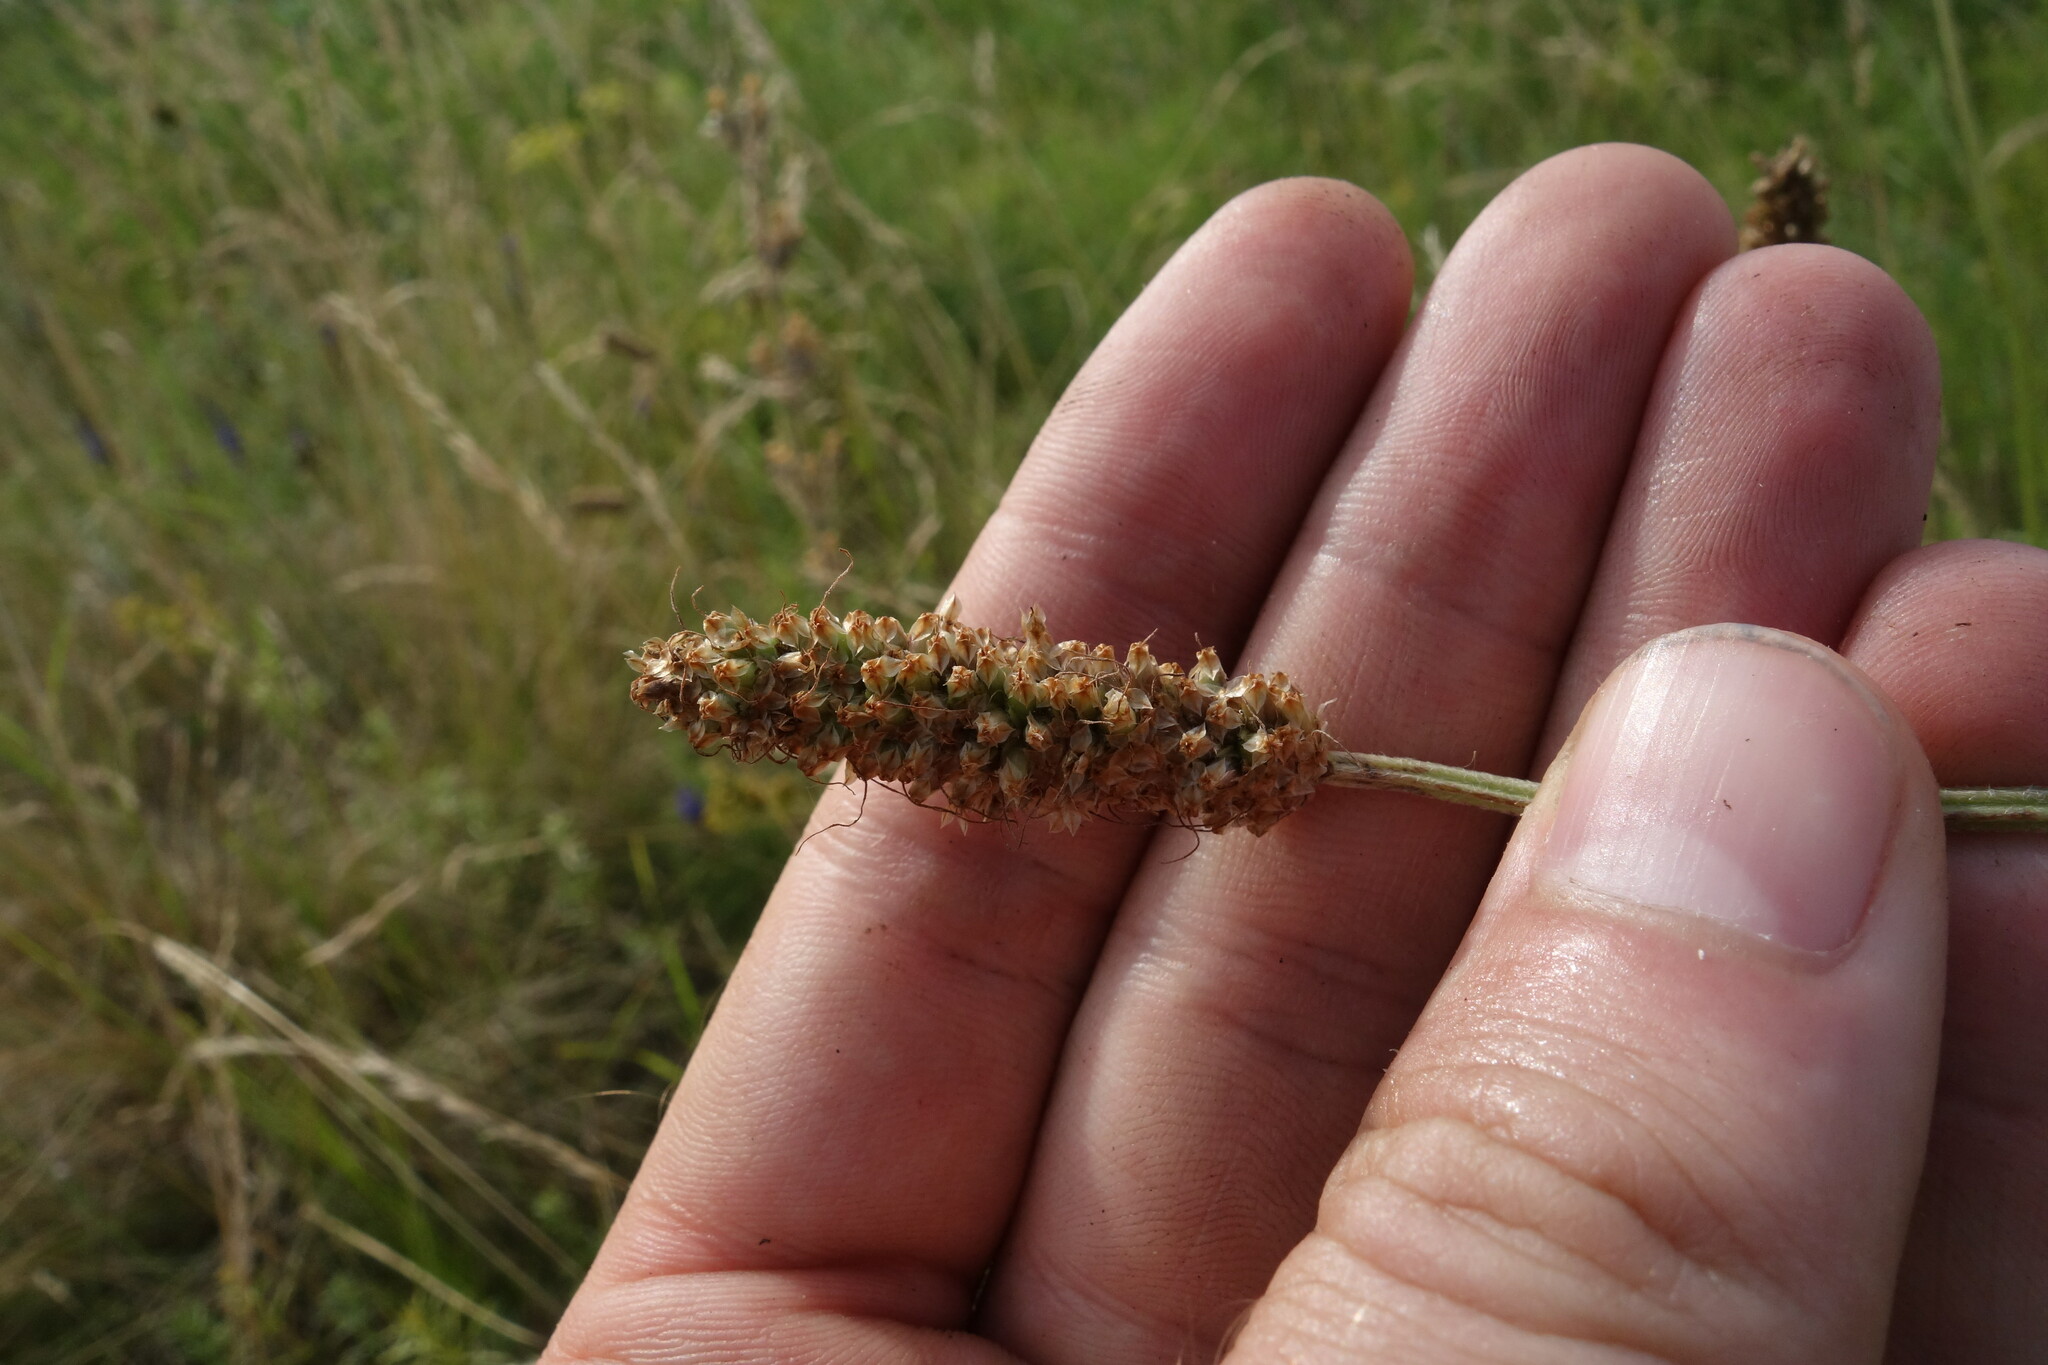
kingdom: Plantae
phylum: Tracheophyta
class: Magnoliopsida
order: Lamiales
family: Plantaginaceae
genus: Plantago
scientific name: Plantago lanceolata
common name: Ribwort plantain
